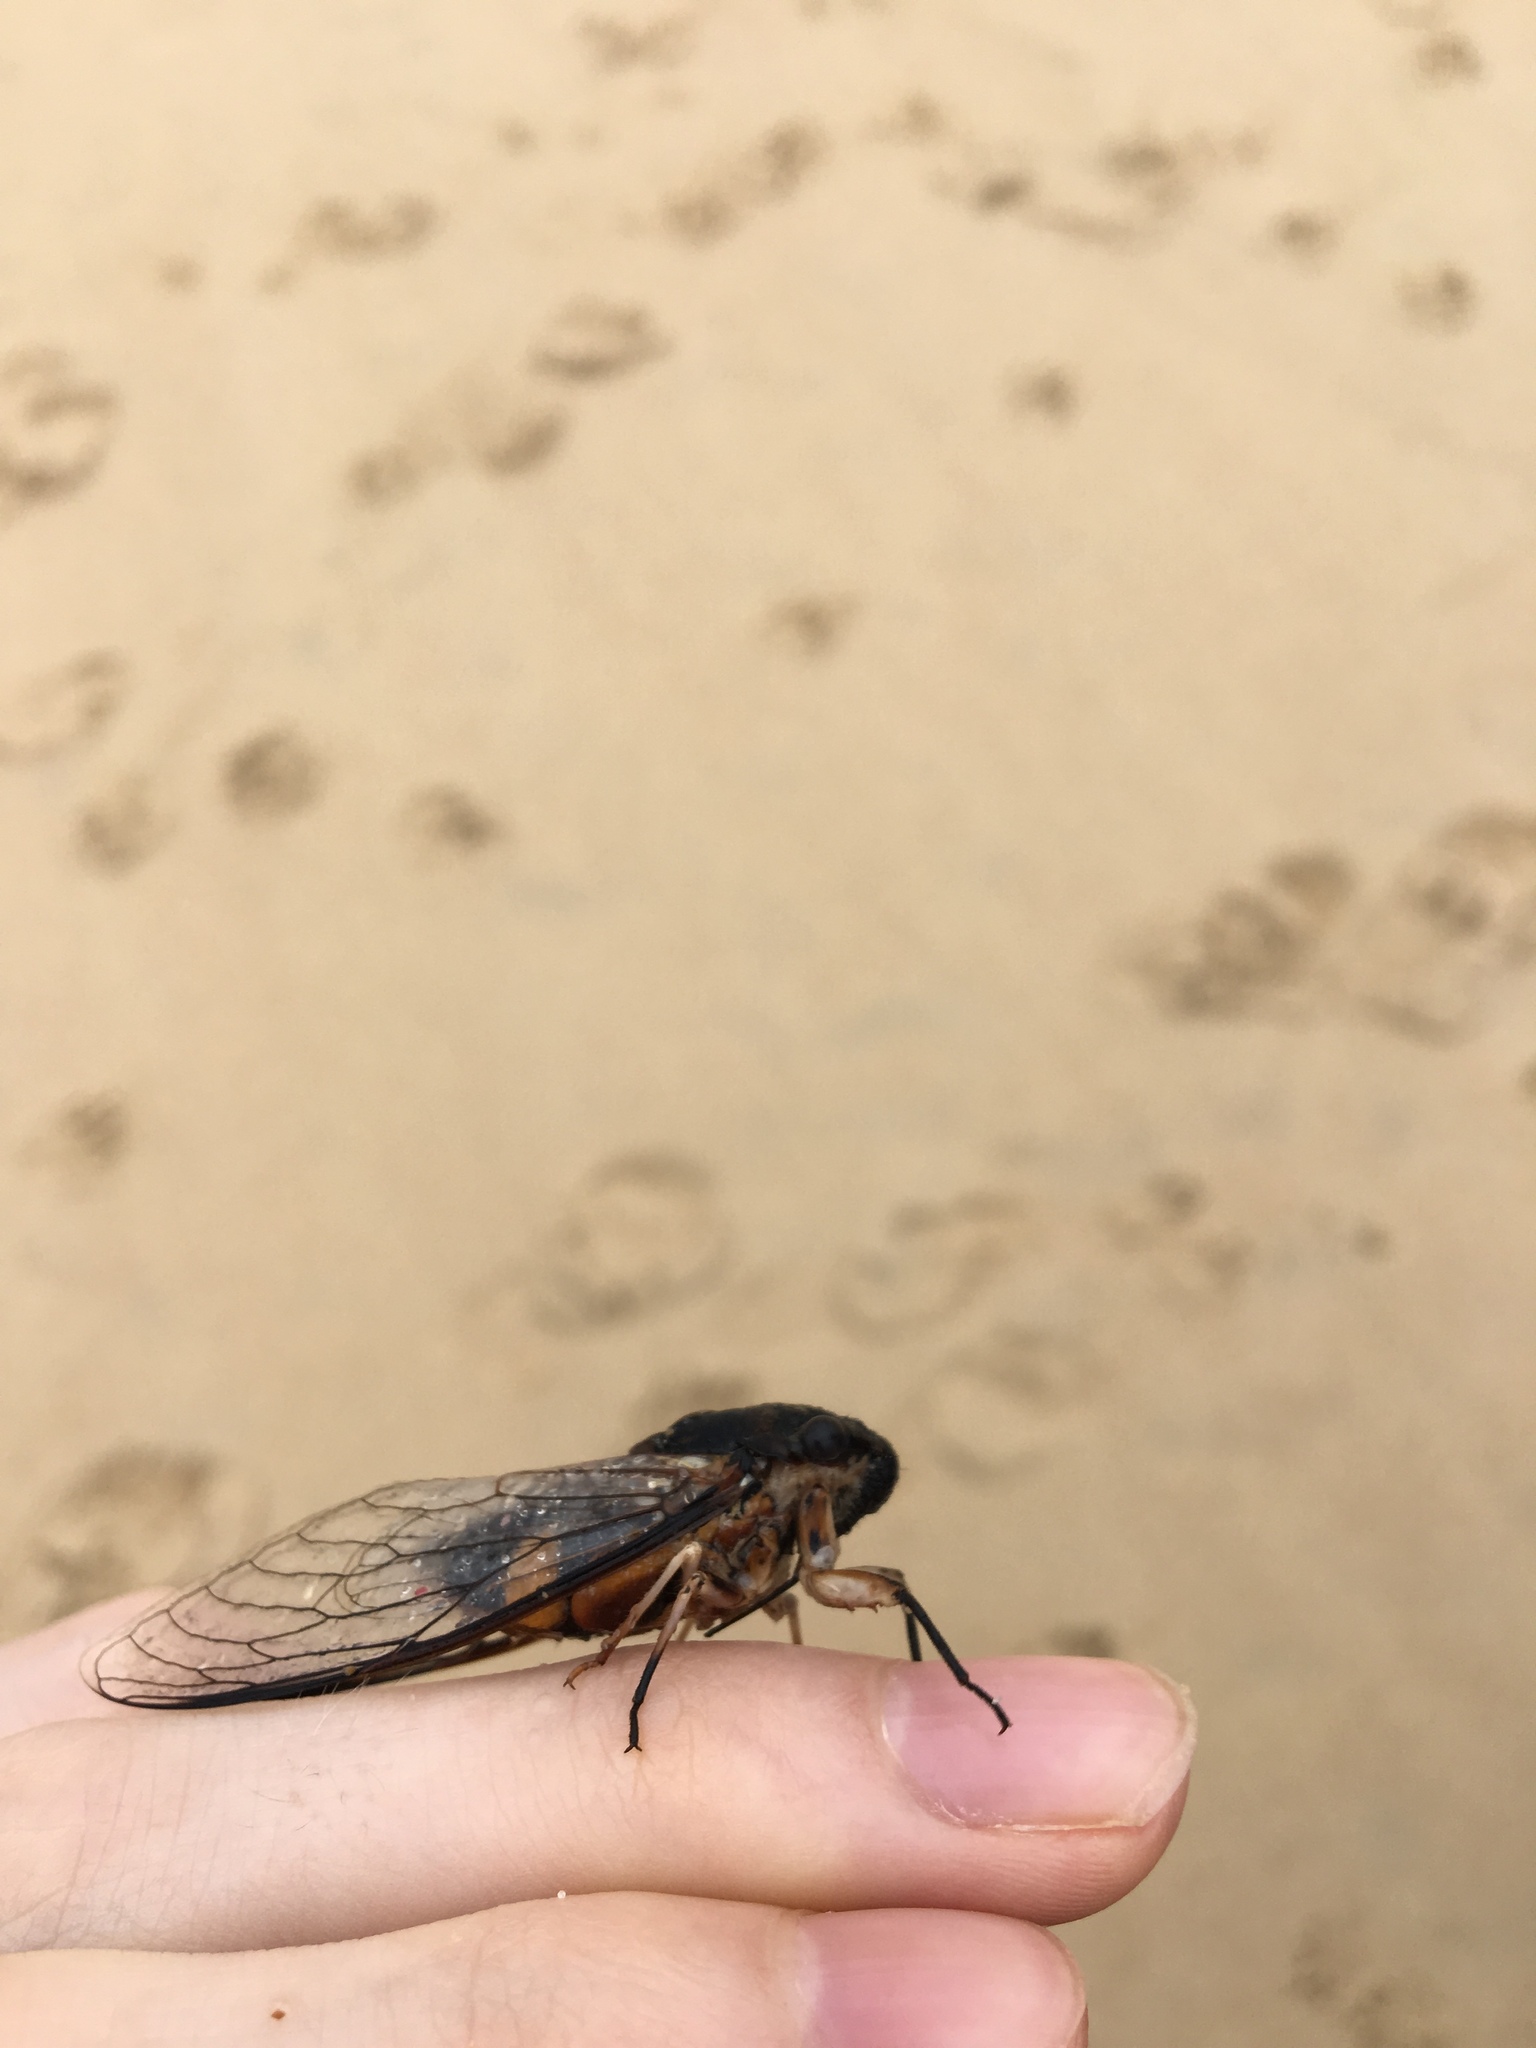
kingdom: Animalia
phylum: Arthropoda
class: Insecta
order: Hemiptera
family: Cicadidae
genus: Psaltoda
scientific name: Psaltoda harrisii
